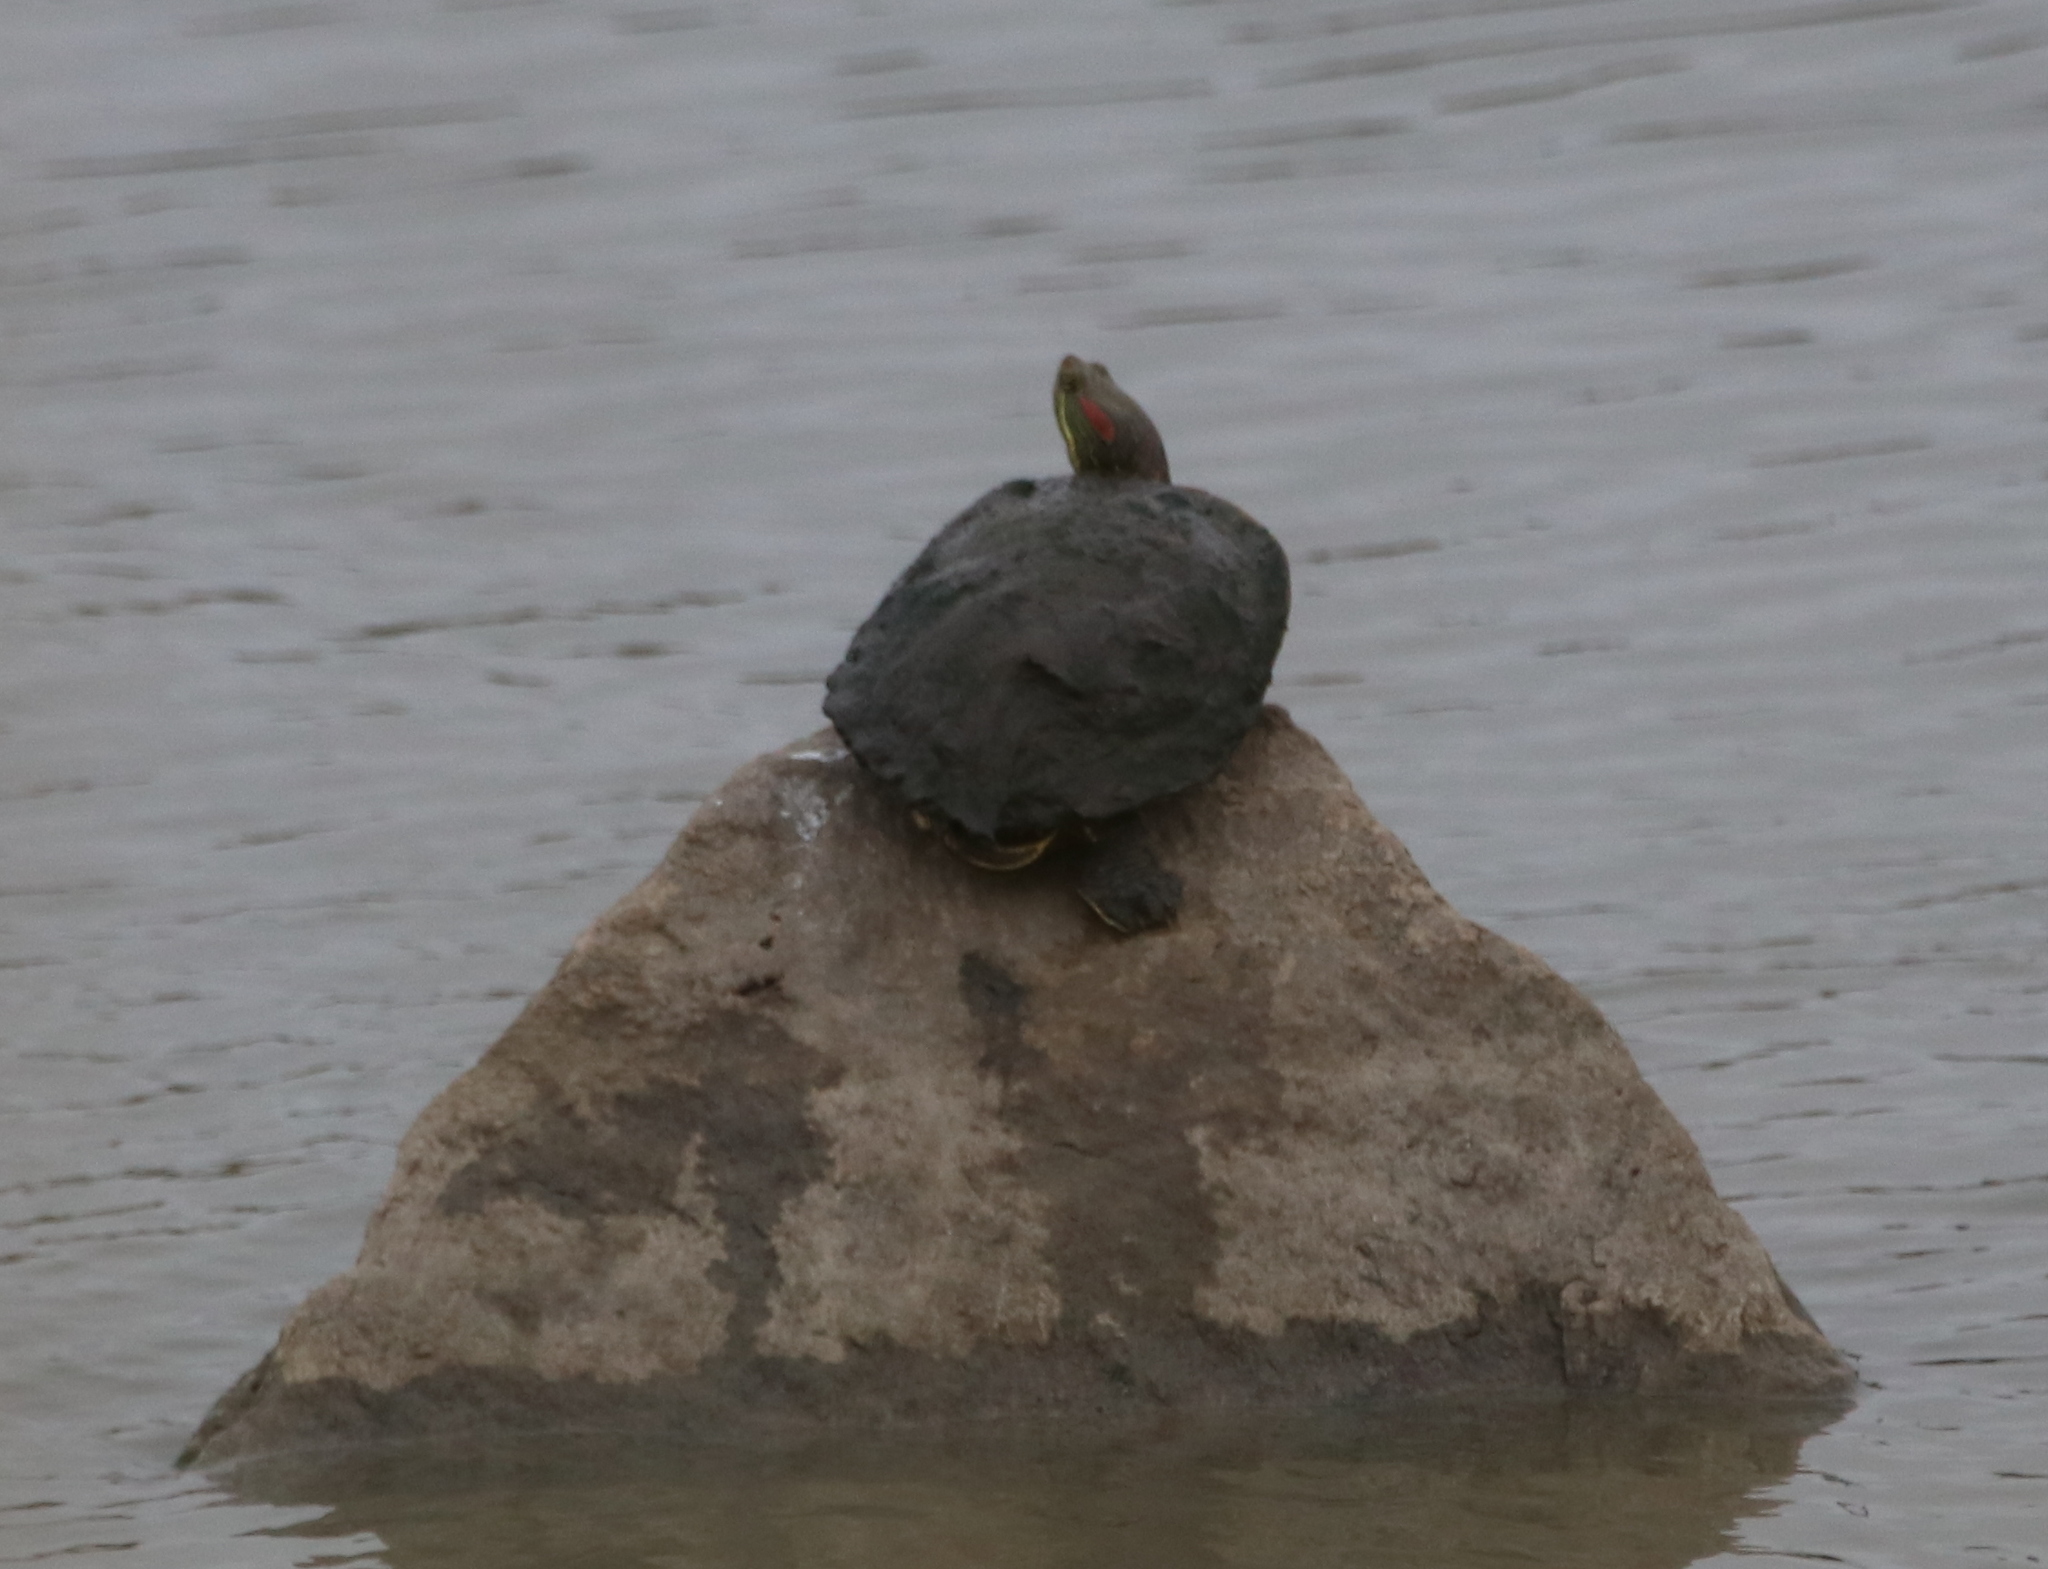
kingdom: Animalia
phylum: Chordata
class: Testudines
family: Emydidae
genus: Trachemys
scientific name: Trachemys scripta
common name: Slider
